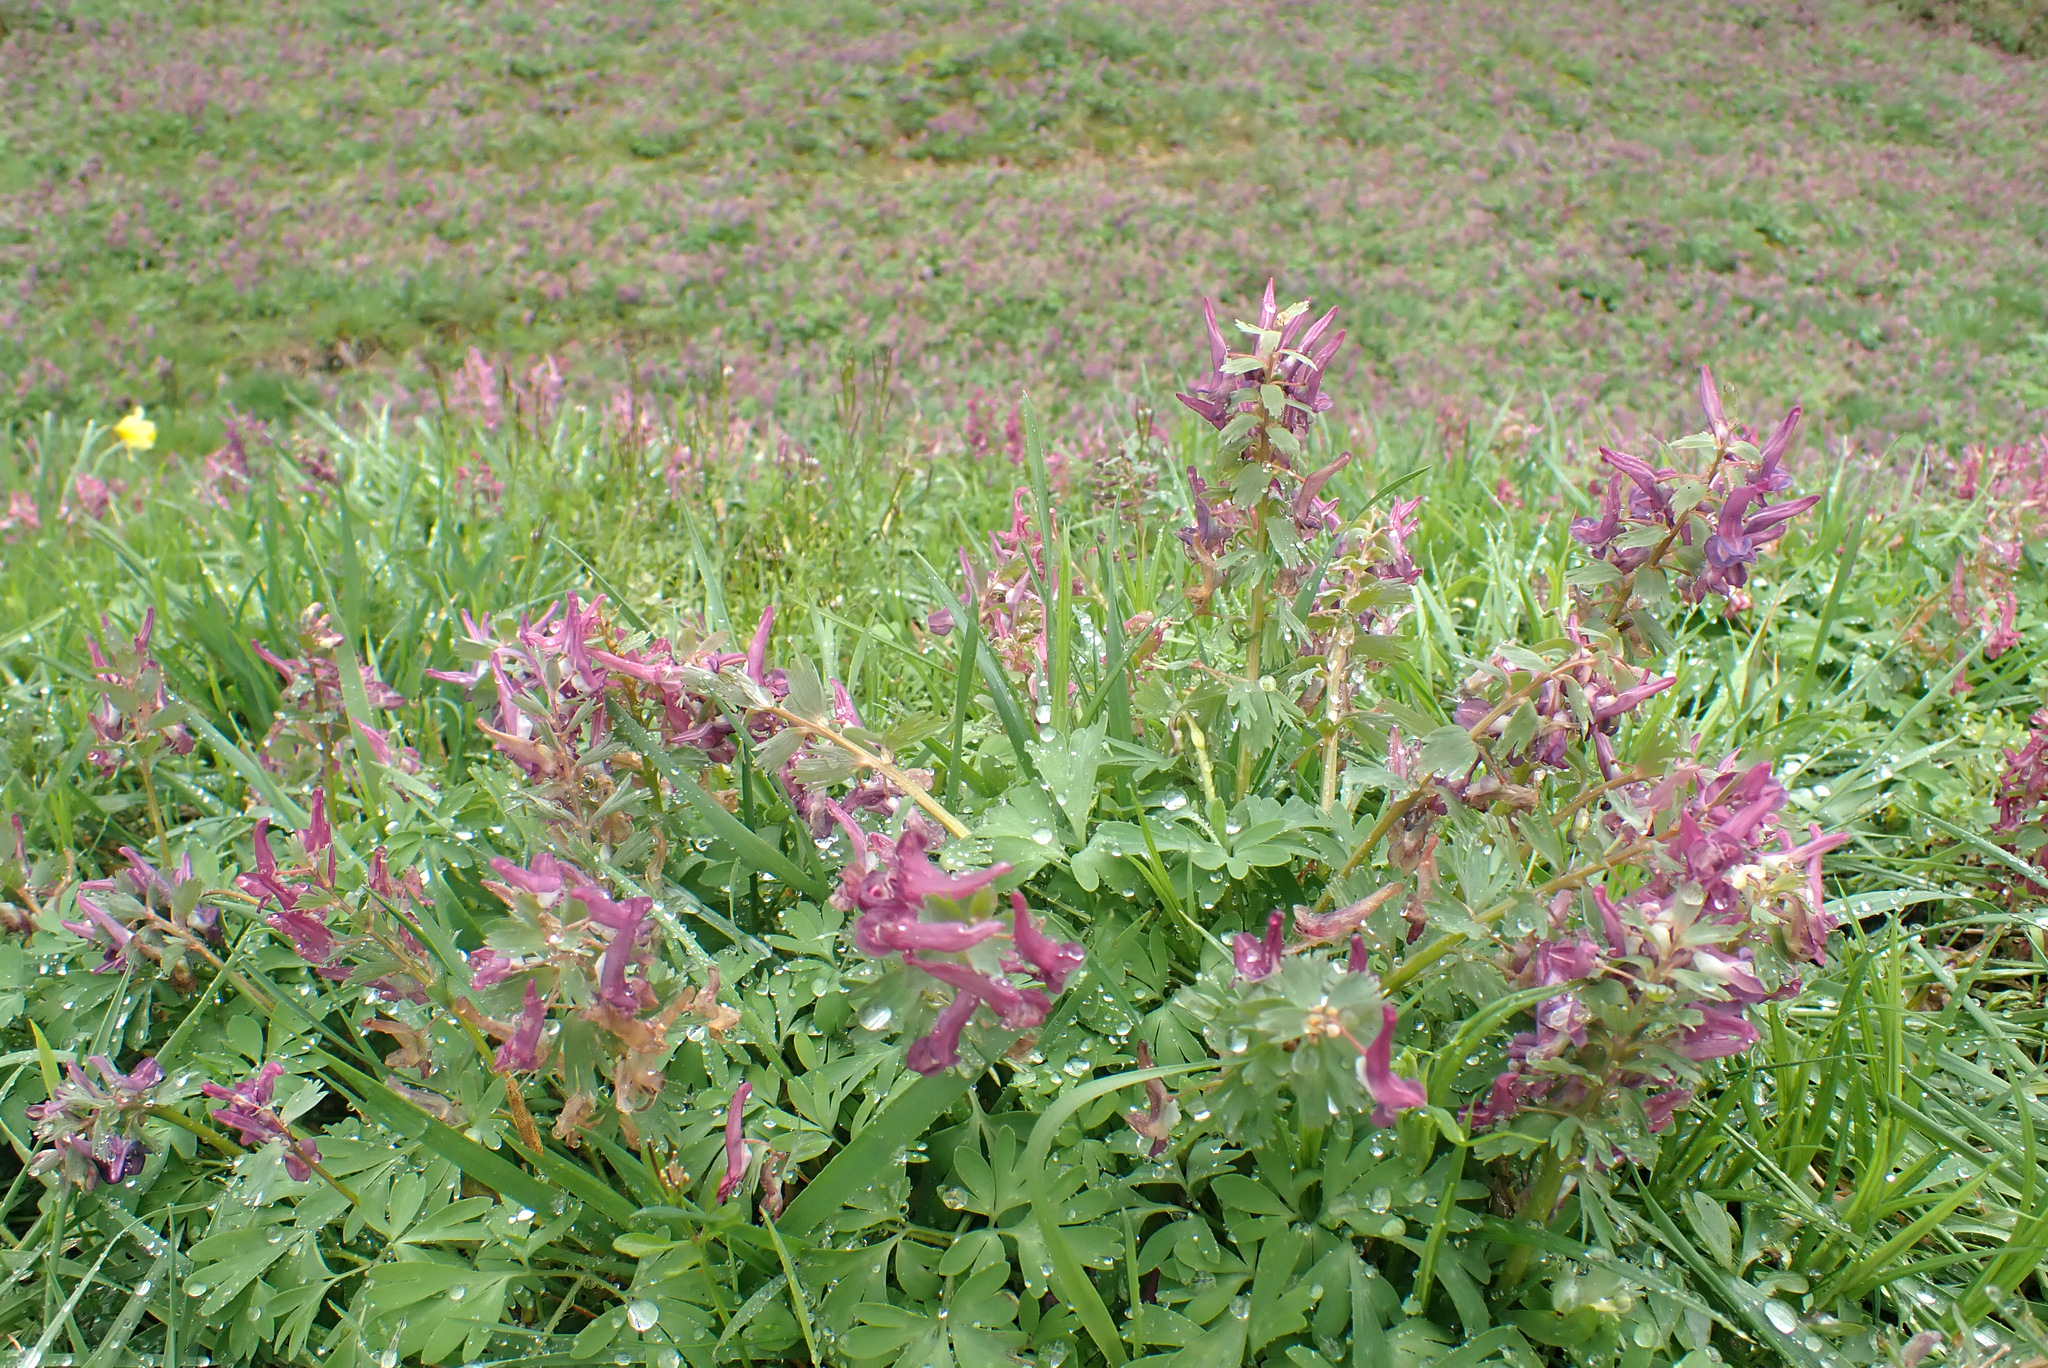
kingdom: Plantae
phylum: Tracheophyta
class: Magnoliopsida
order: Ranunculales
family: Papaveraceae
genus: Corydalis
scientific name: Corydalis solida
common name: Bird-in-a-bush
